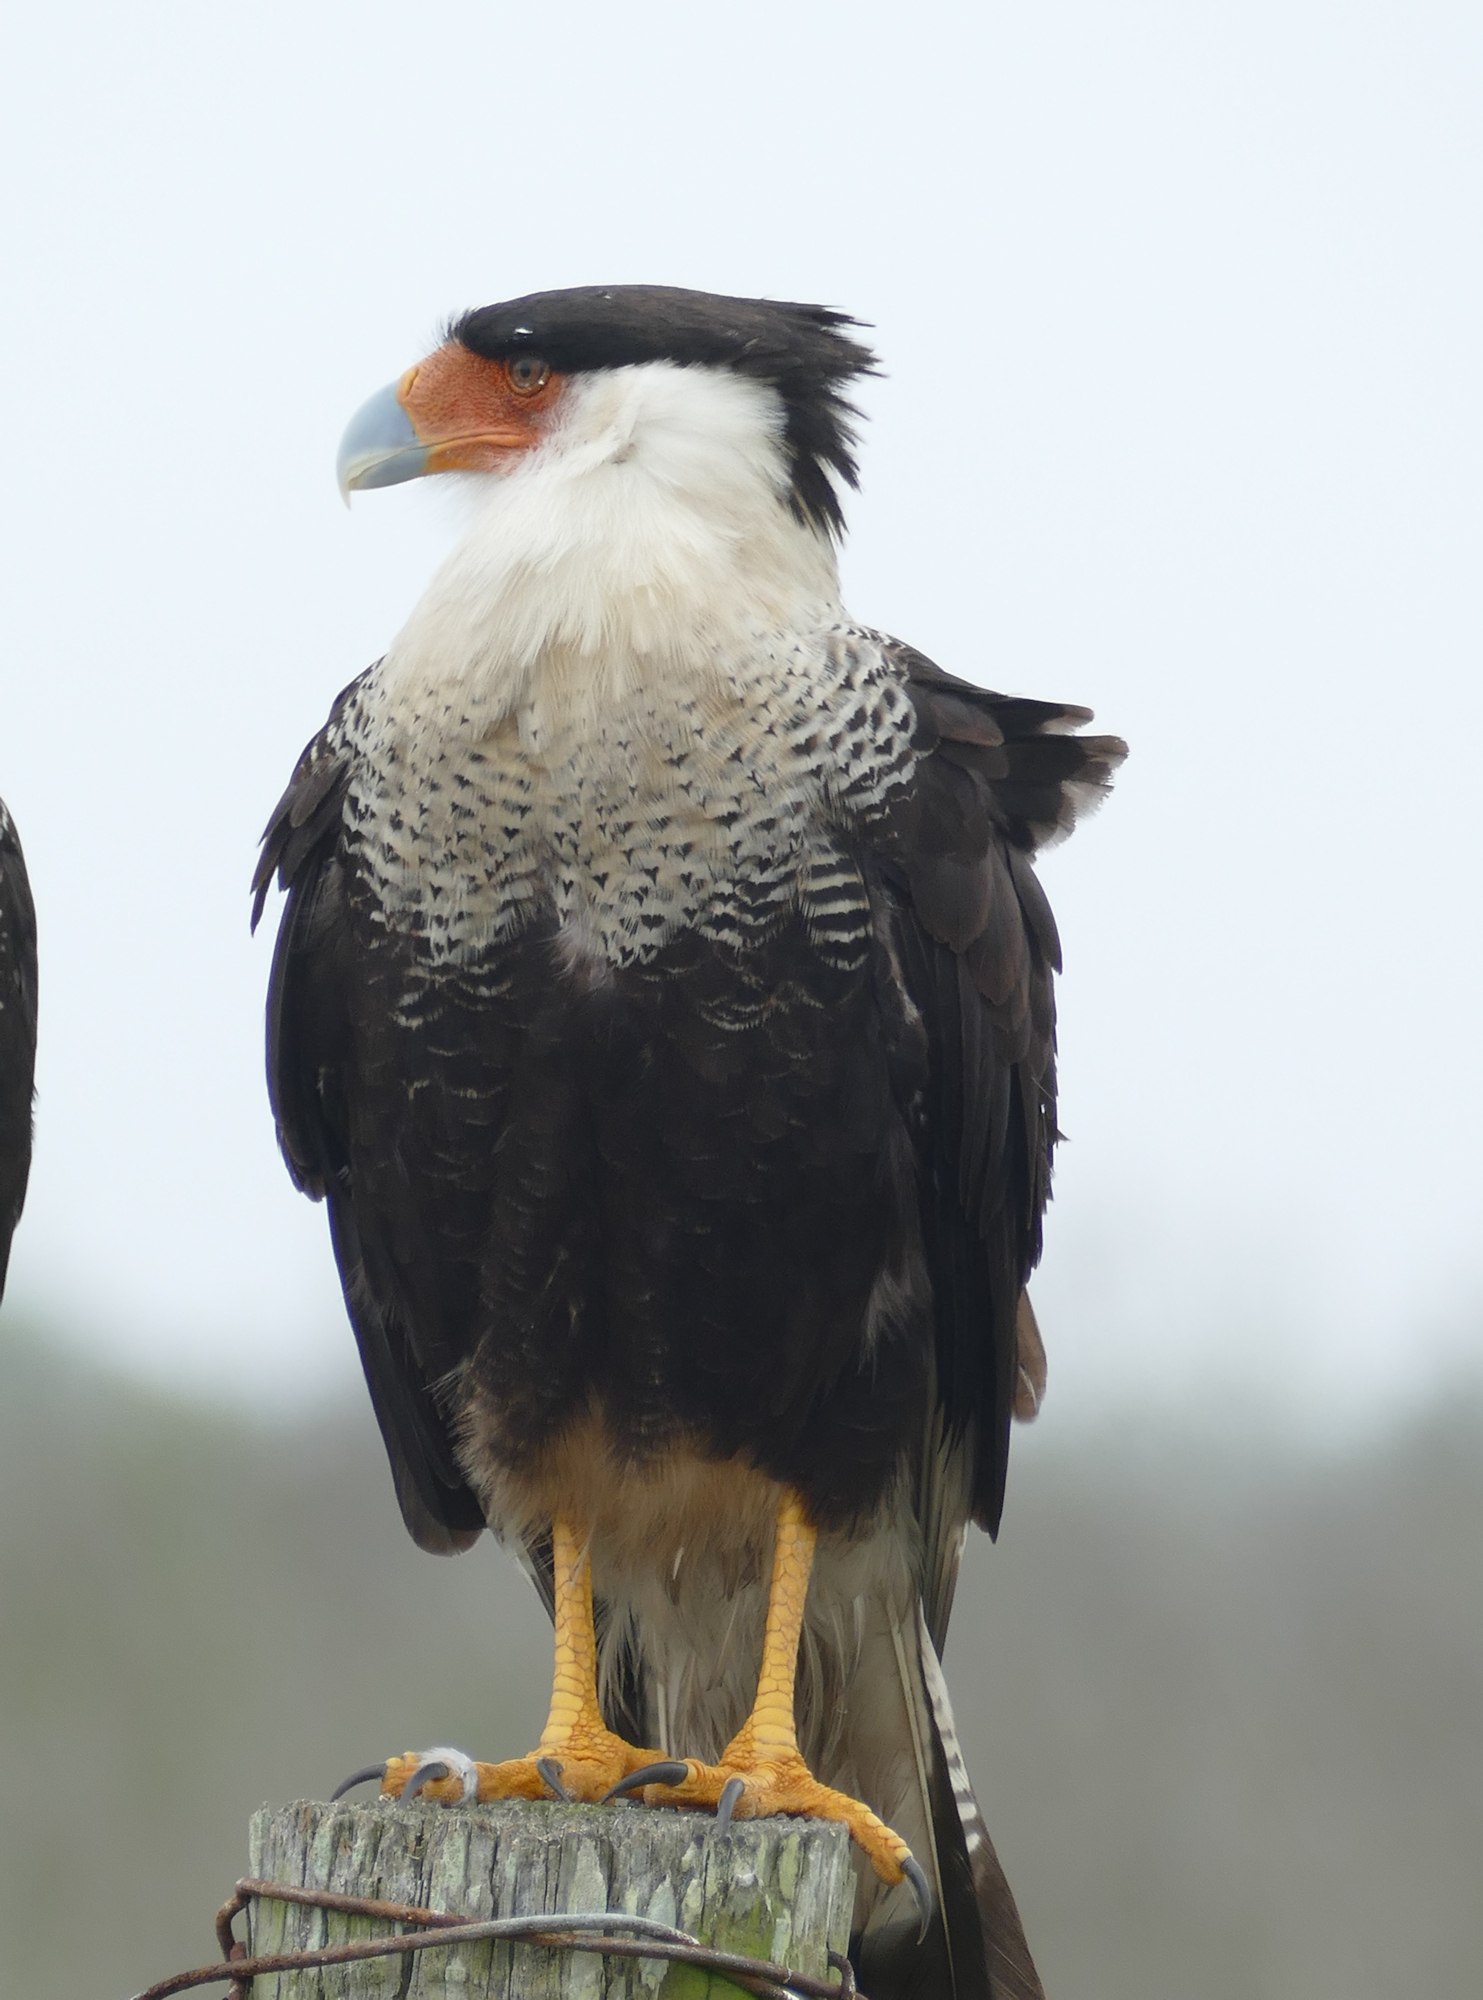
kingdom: Animalia
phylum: Chordata
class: Aves
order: Falconiformes
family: Falconidae
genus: Caracara
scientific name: Caracara plancus
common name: Southern caracara
